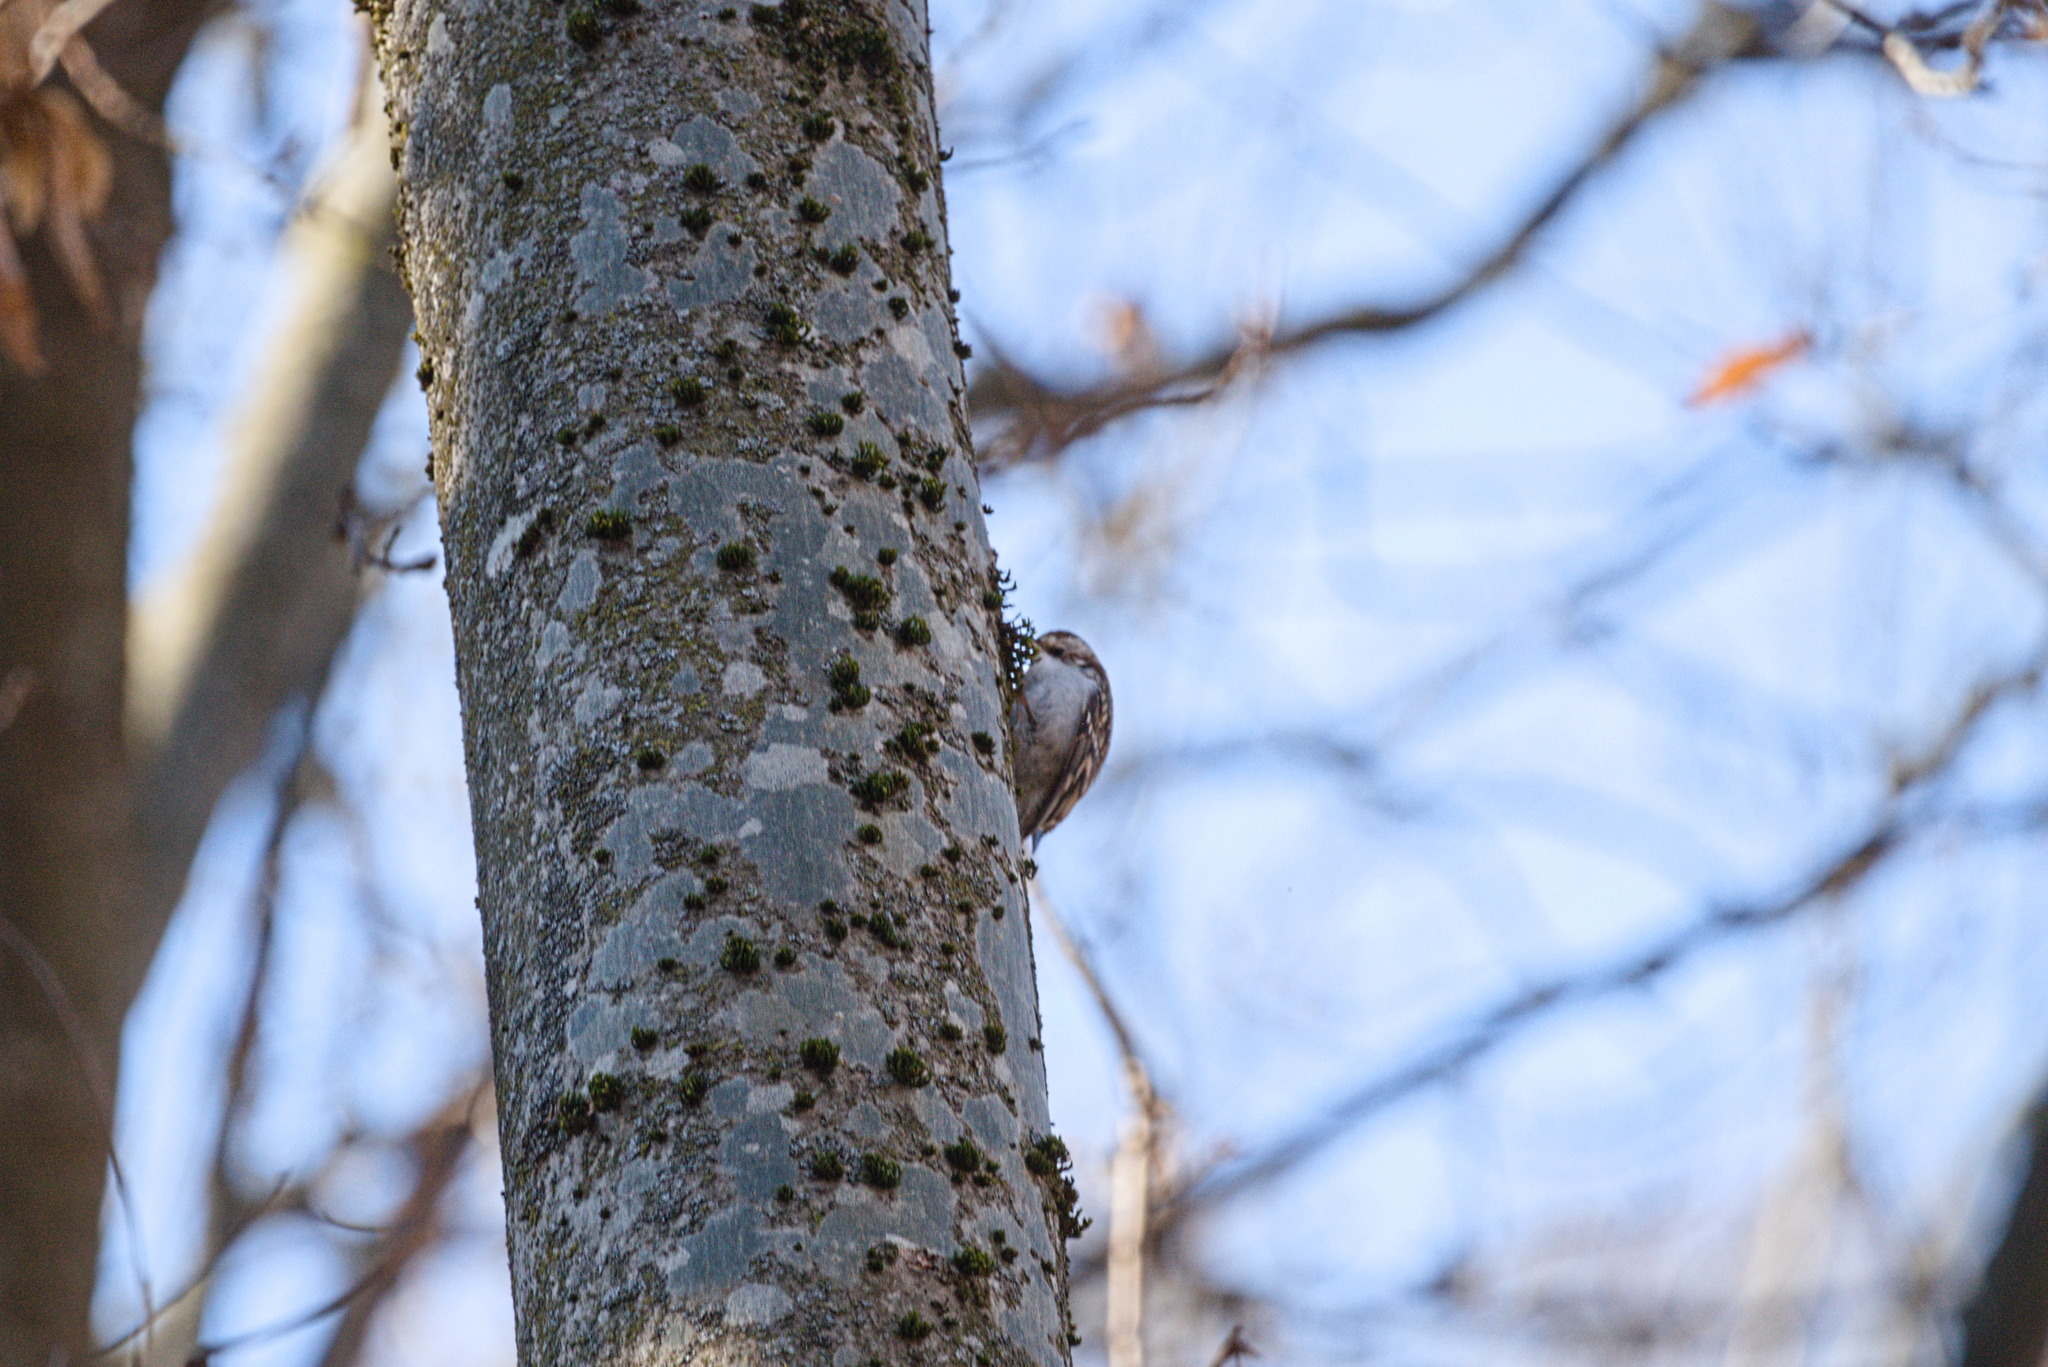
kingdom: Animalia
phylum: Chordata
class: Aves
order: Passeriformes
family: Certhiidae
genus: Certhia
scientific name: Certhia
